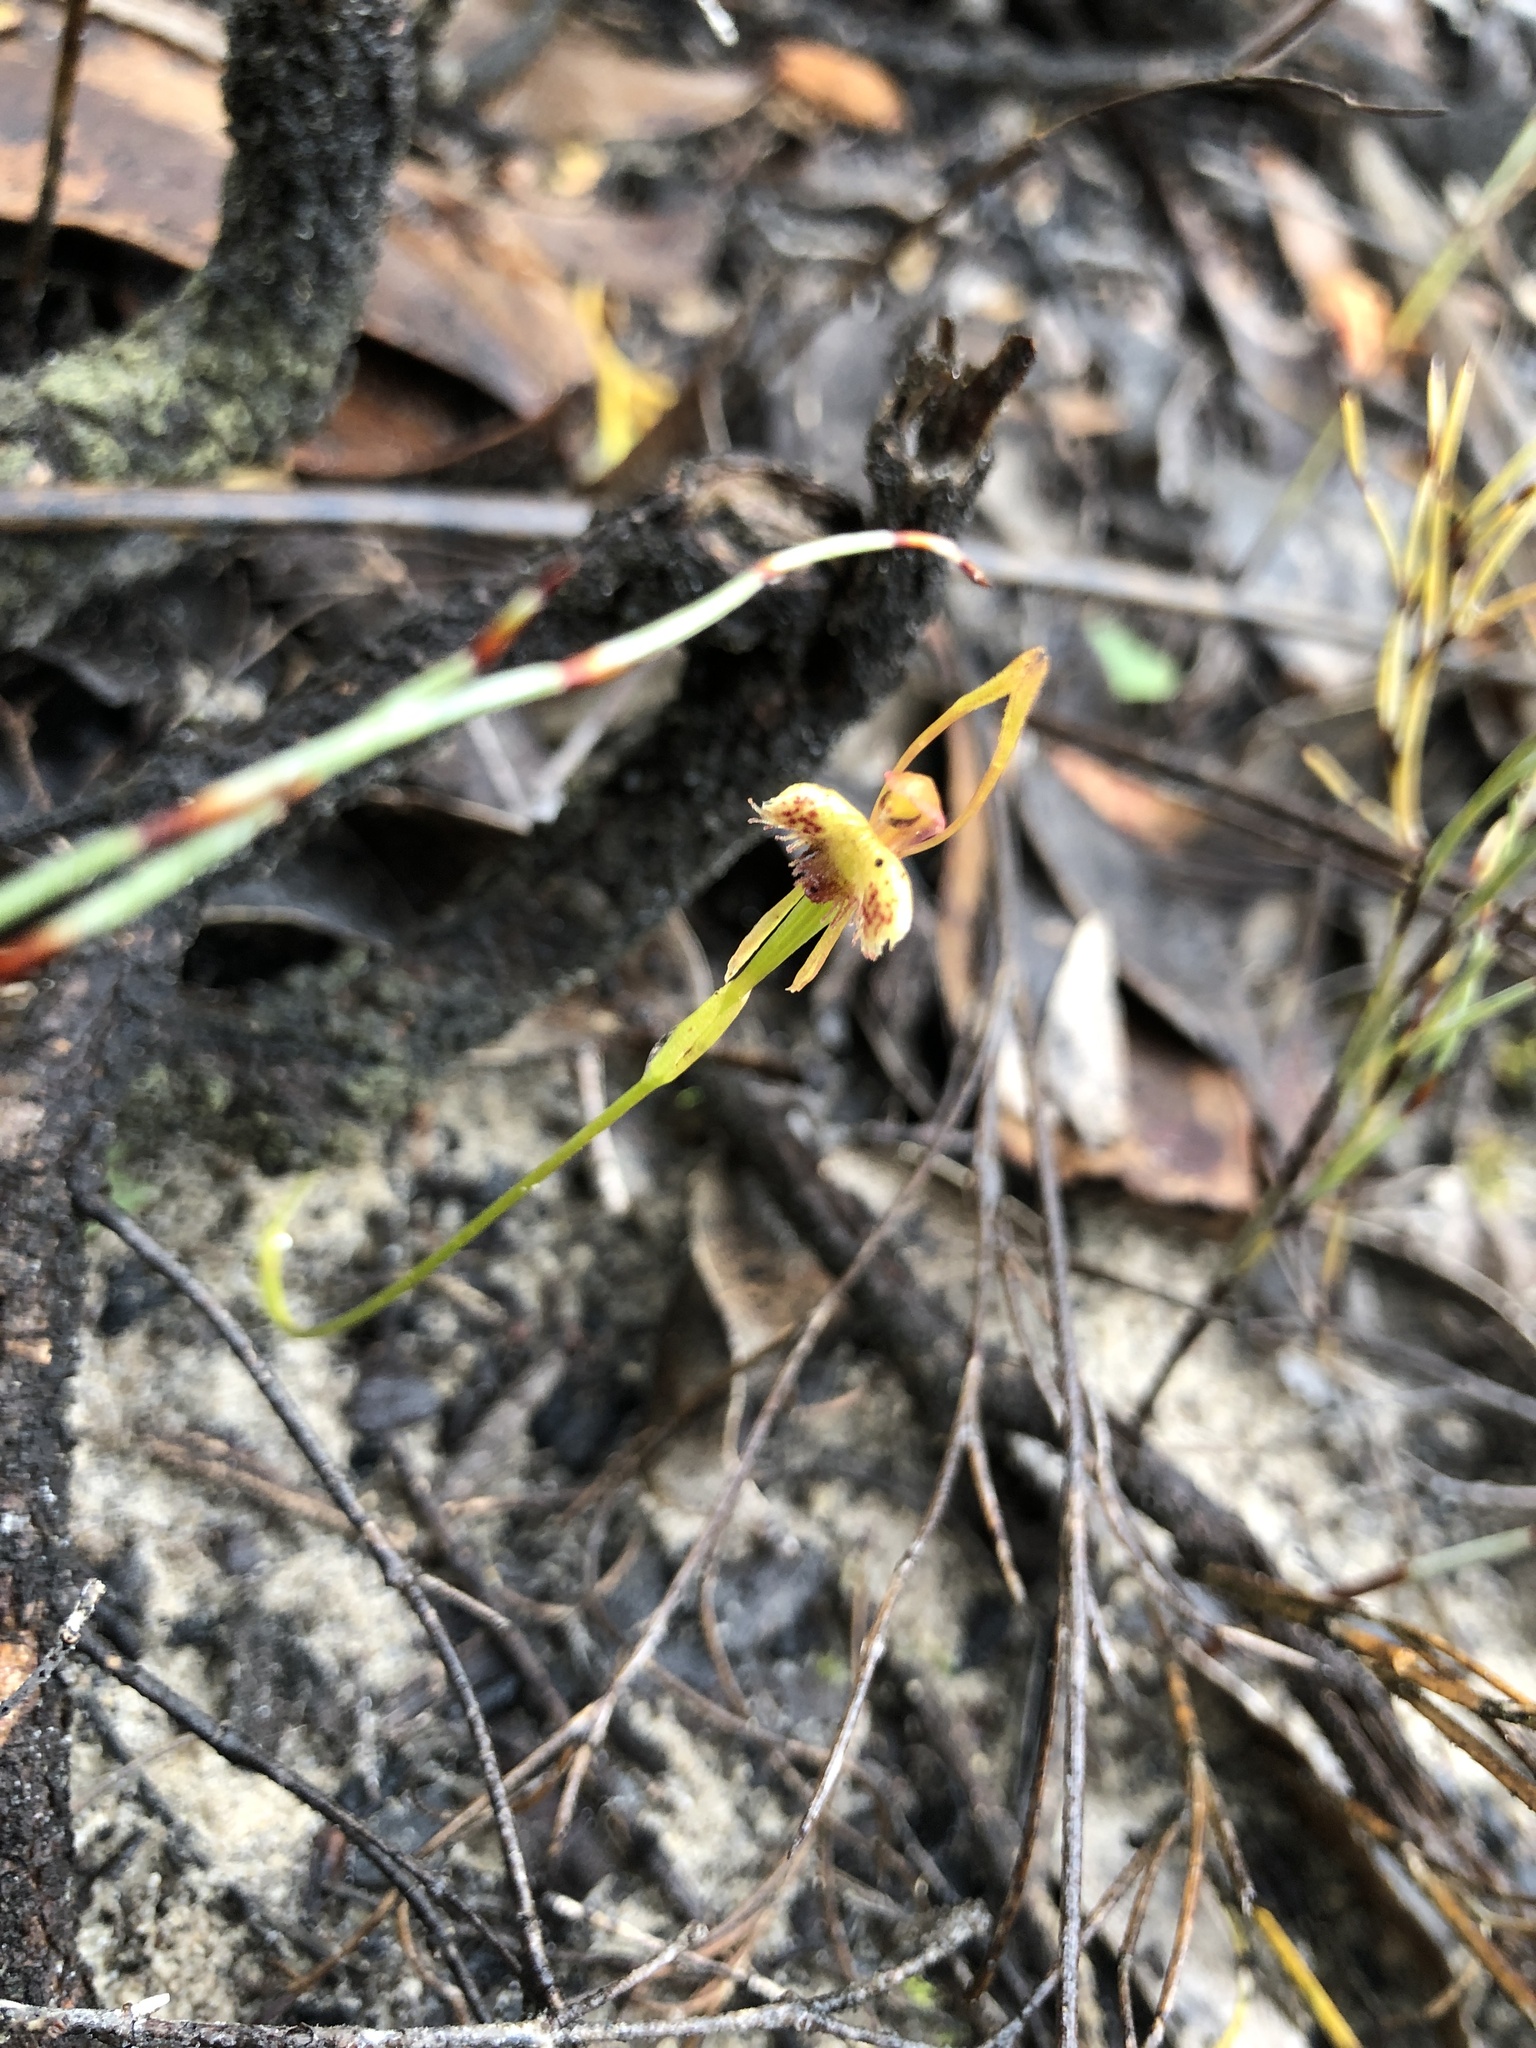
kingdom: Plantae
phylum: Tracheophyta
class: Liliopsida
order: Asparagales
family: Orchidaceae
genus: Leporella
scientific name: Leporella fimbriata
